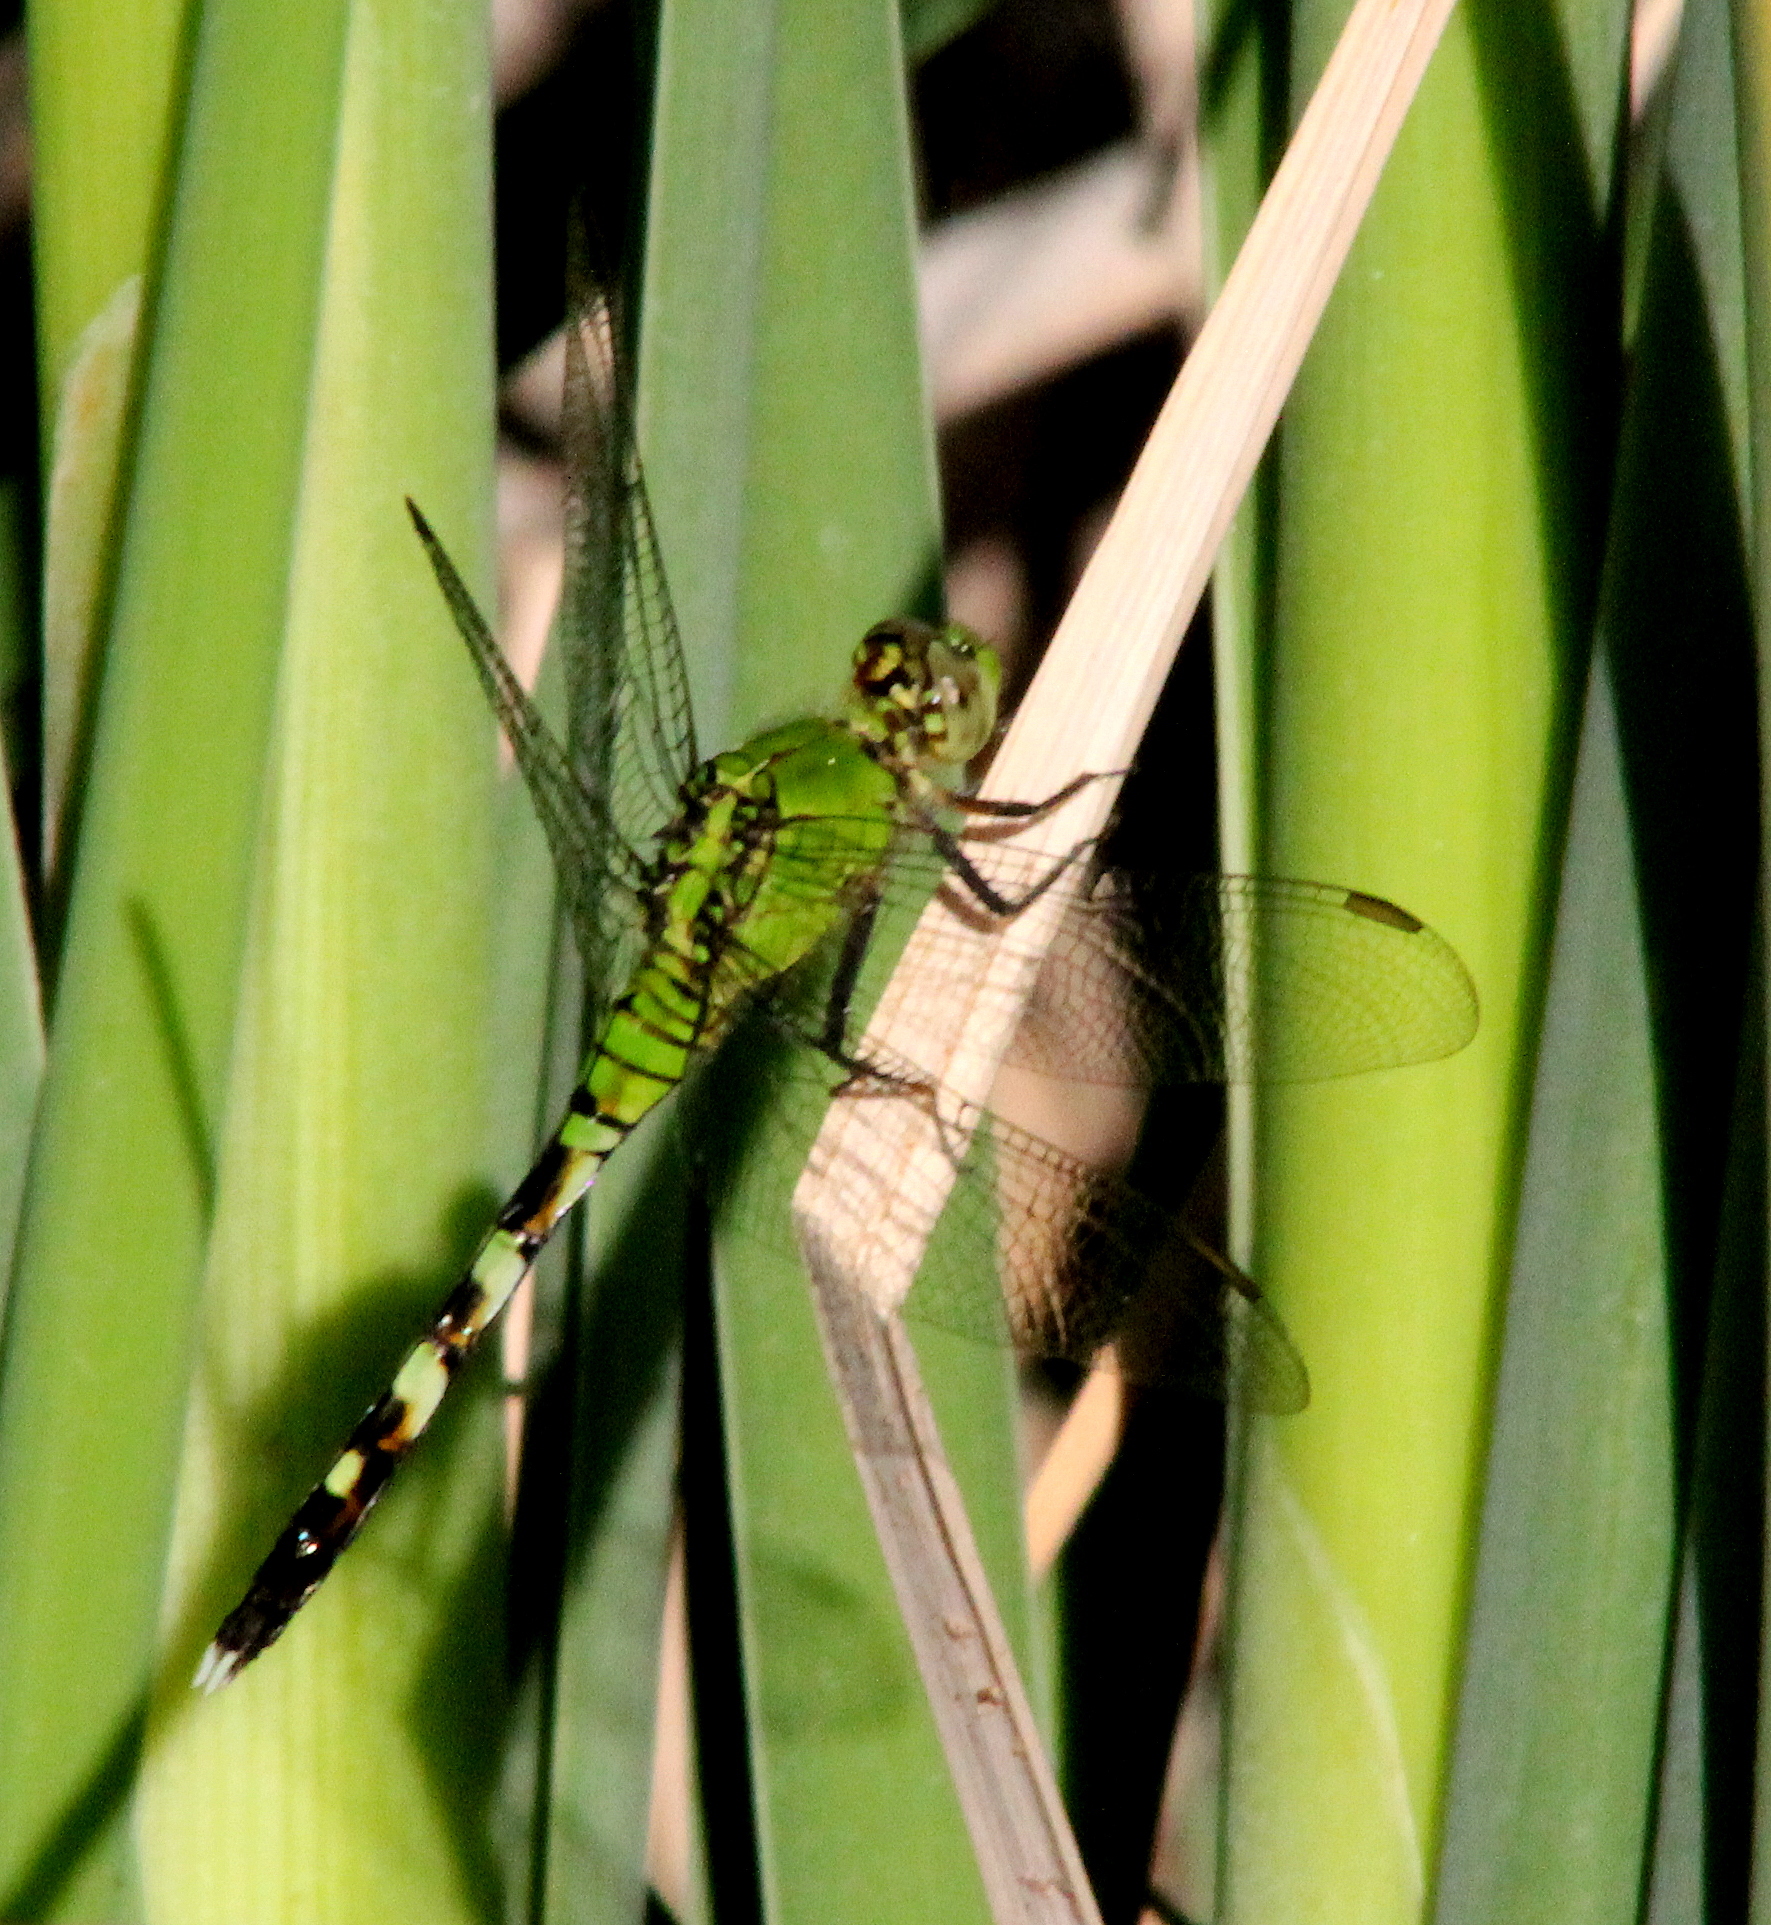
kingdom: Animalia
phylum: Arthropoda
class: Insecta
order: Odonata
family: Libellulidae
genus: Erythemis
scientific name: Erythemis simplicicollis
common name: Eastern pondhawk
